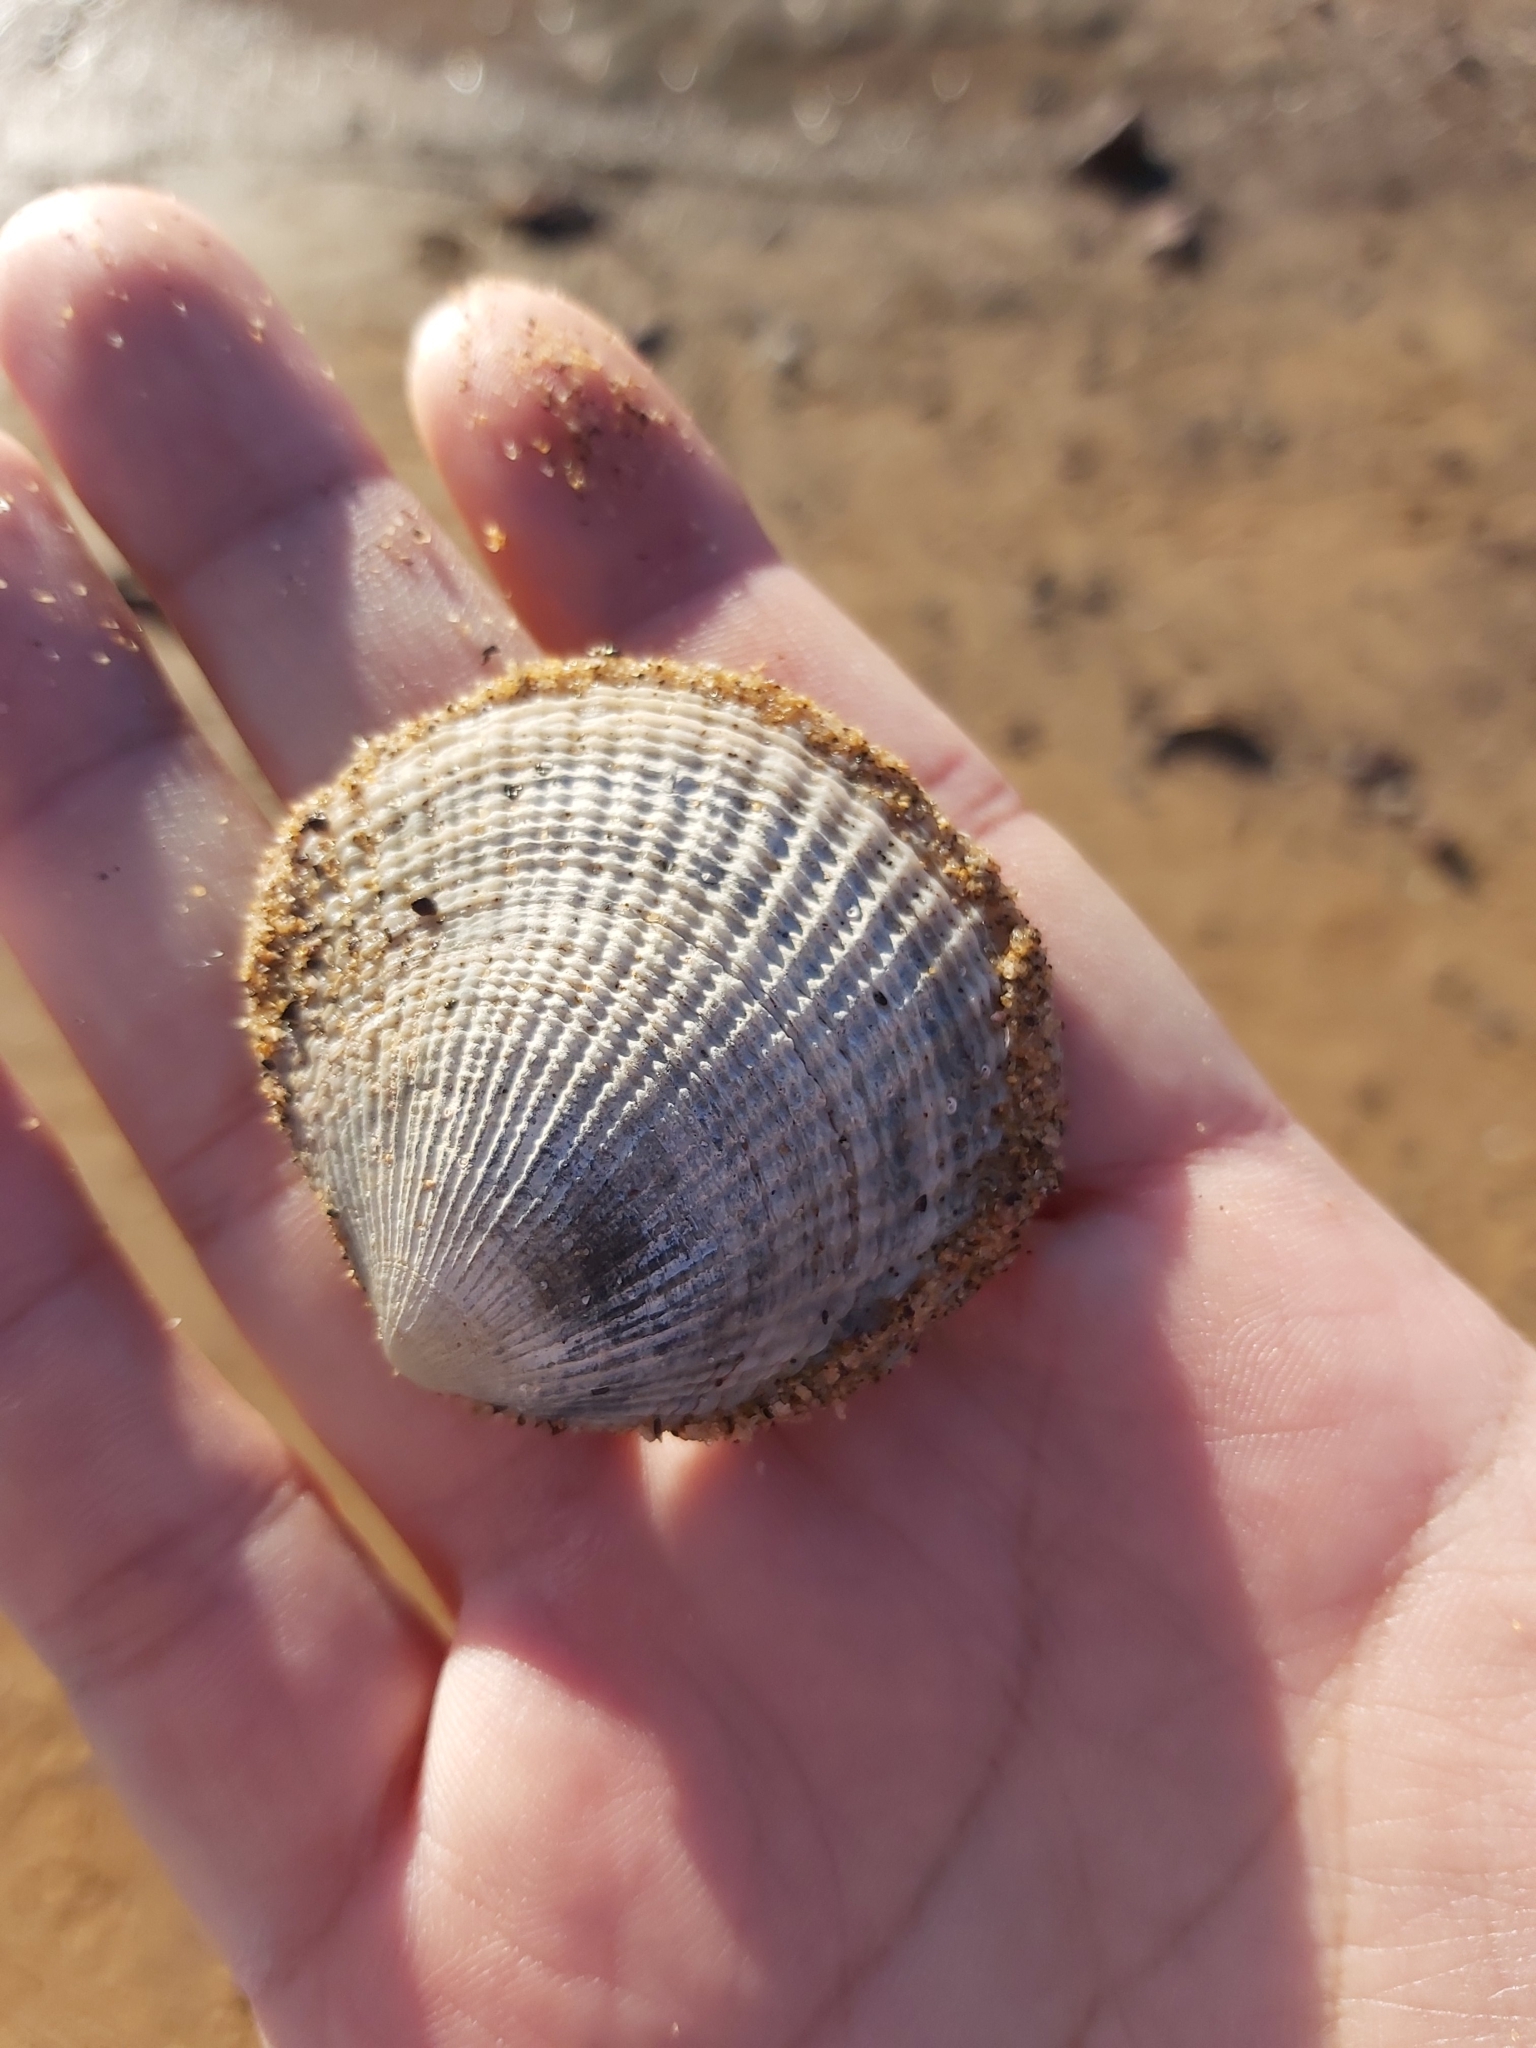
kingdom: Animalia
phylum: Mollusca
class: Bivalvia
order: Lucinida
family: Lucinidae
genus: Codakia
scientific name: Codakia rugifera
